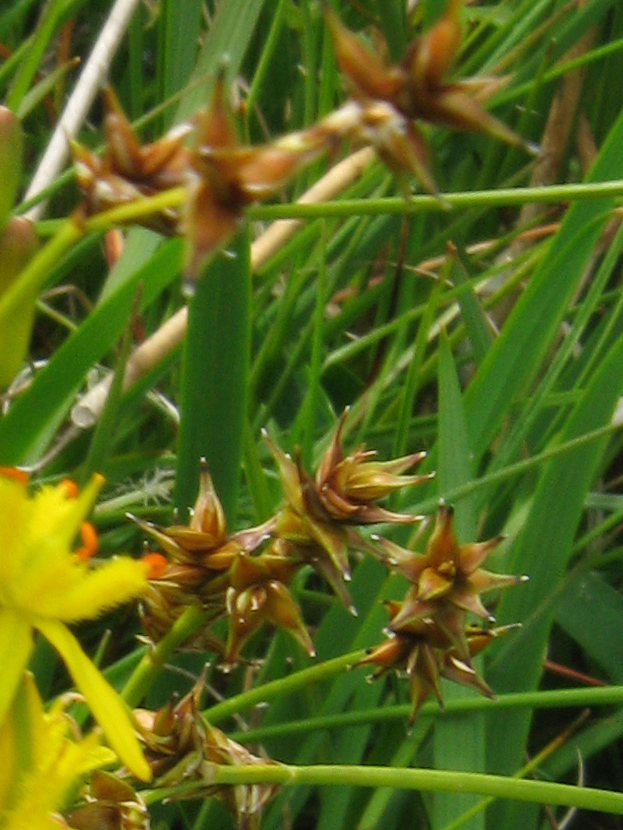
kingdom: Plantae
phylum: Tracheophyta
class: Liliopsida
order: Poales
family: Cyperaceae
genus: Carex
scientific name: Carex echinata
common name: Star sedge
